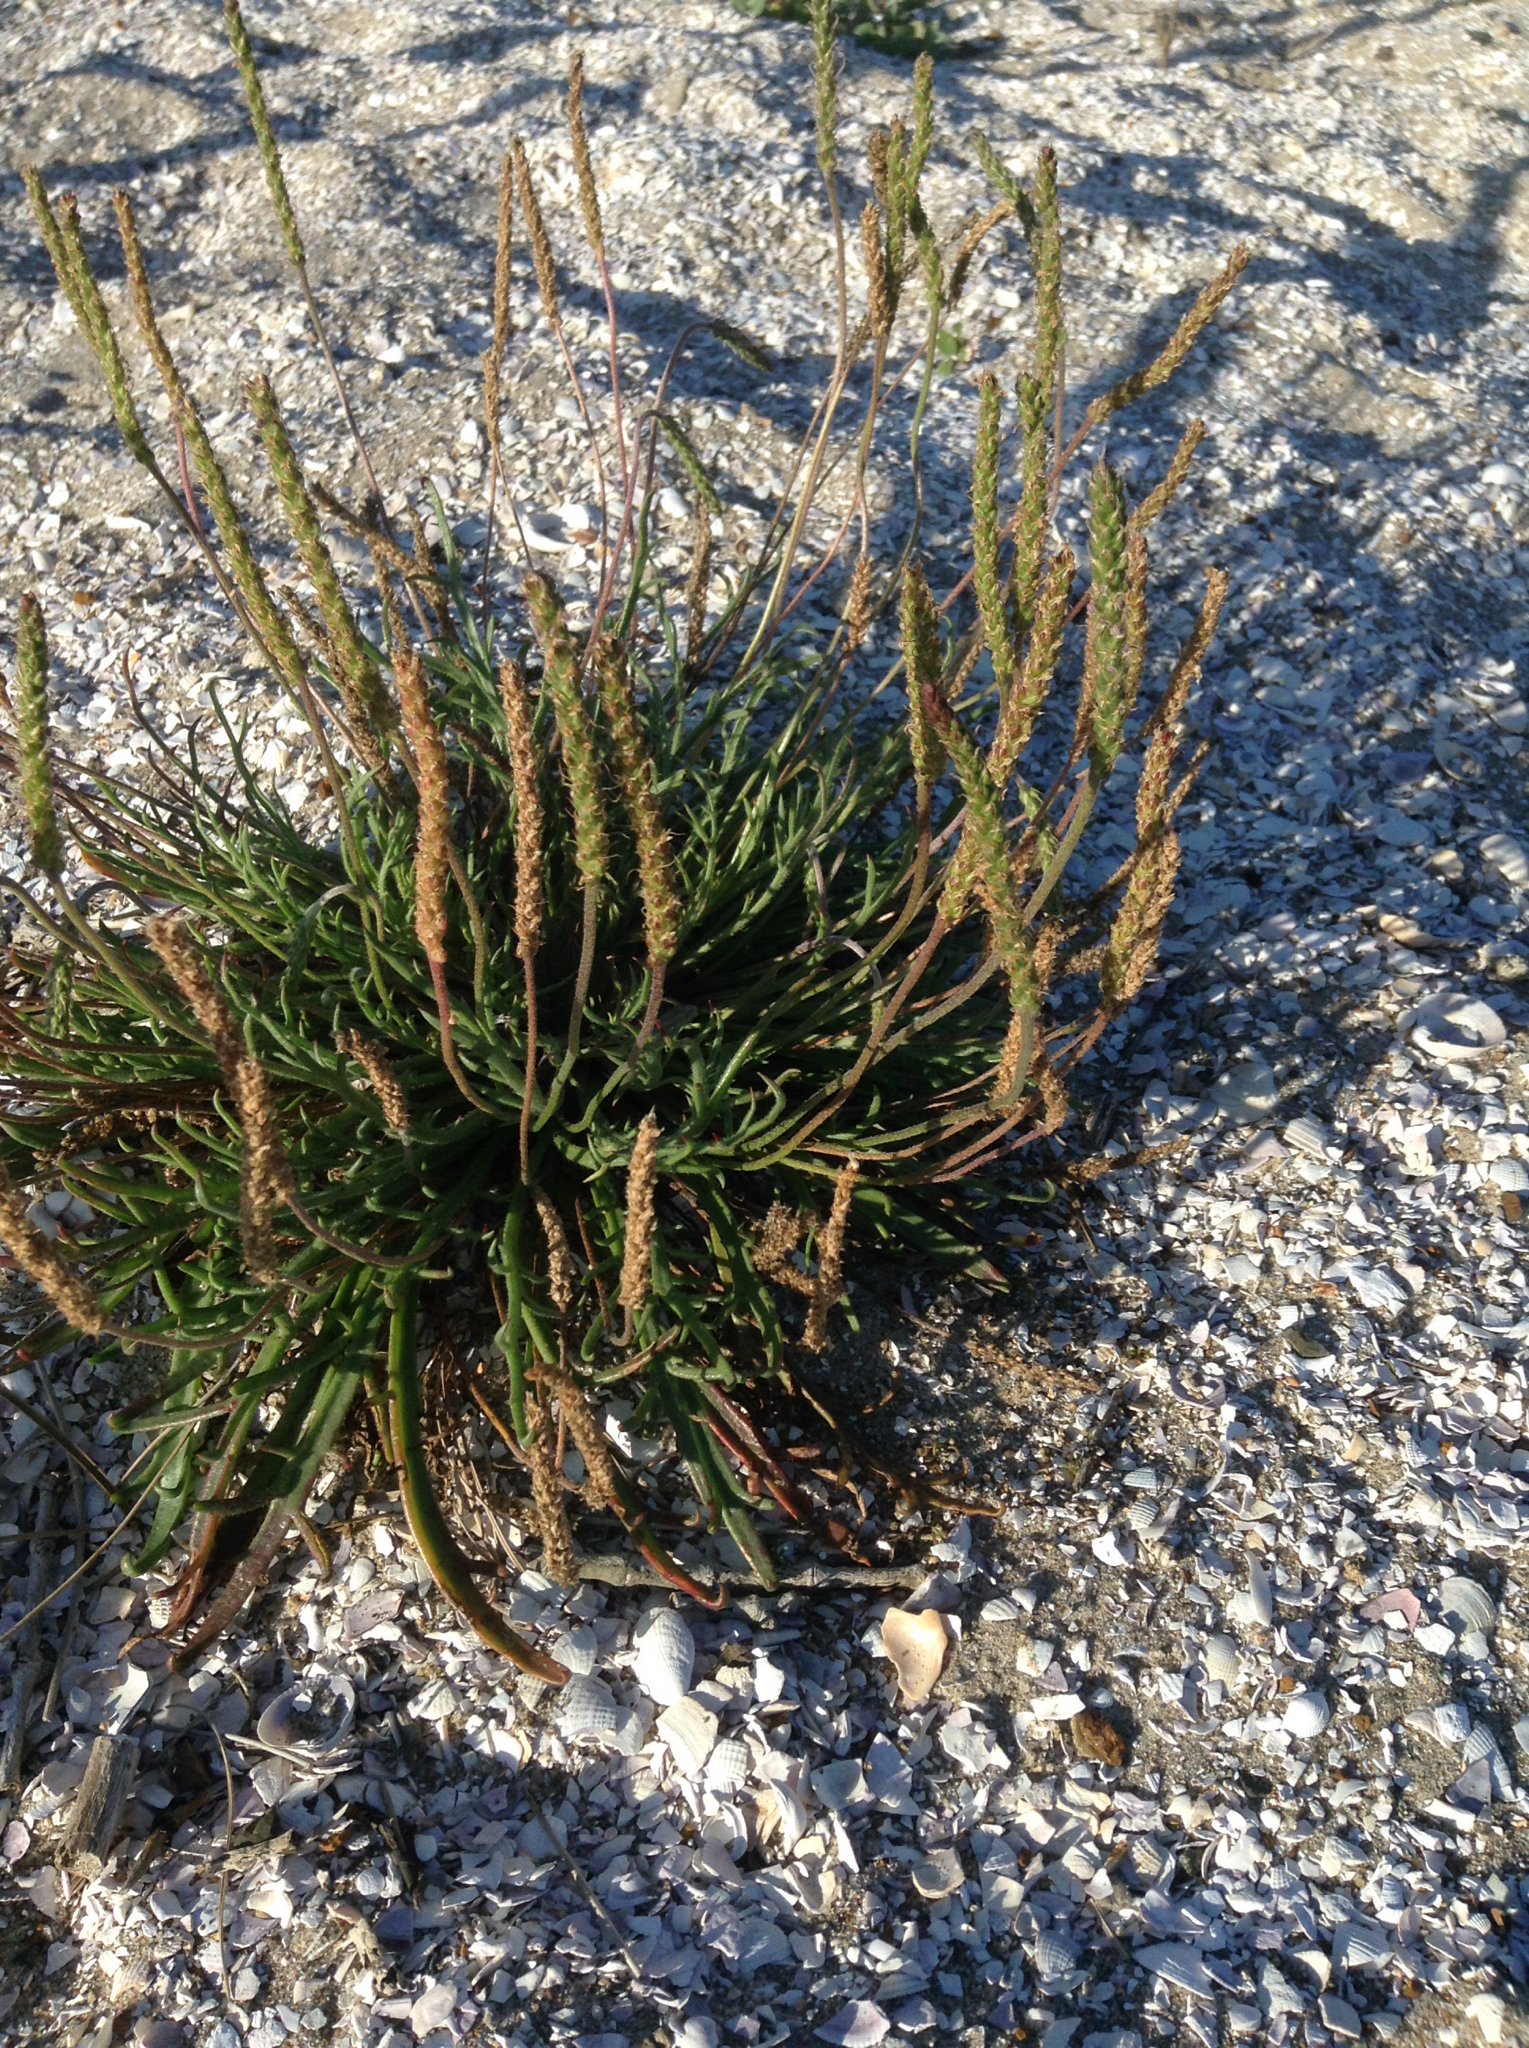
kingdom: Plantae
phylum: Tracheophyta
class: Magnoliopsida
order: Lamiales
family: Plantaginaceae
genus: Plantago
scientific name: Plantago coronopus
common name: Buck's-horn plantain
